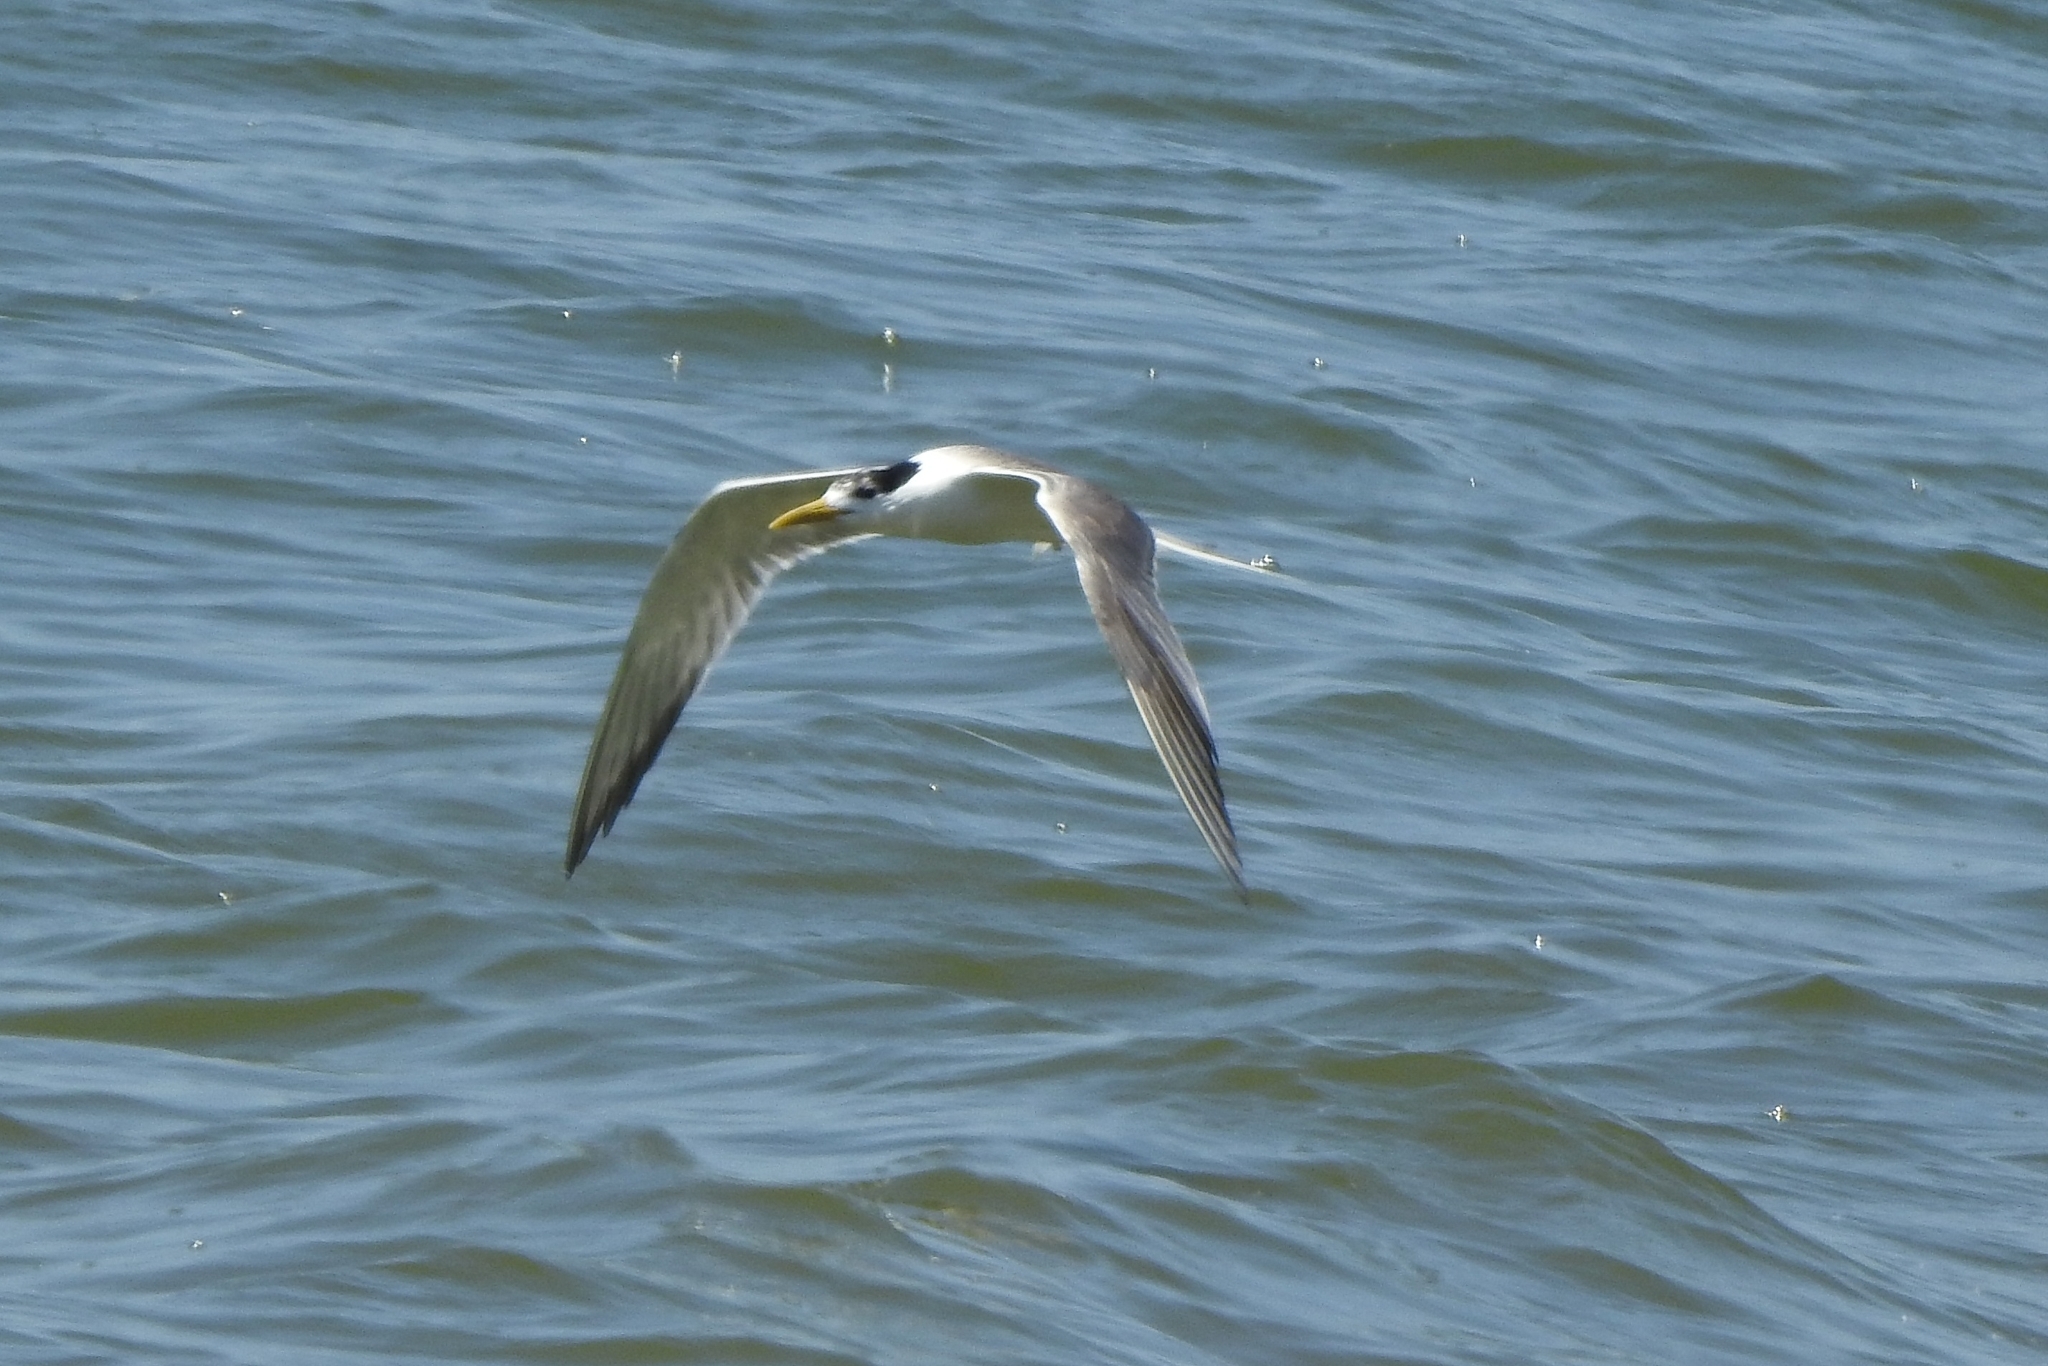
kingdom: Animalia
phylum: Chordata
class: Aves
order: Charadriiformes
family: Laridae
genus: Thalasseus
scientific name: Thalasseus bergii
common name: Greater crested tern
